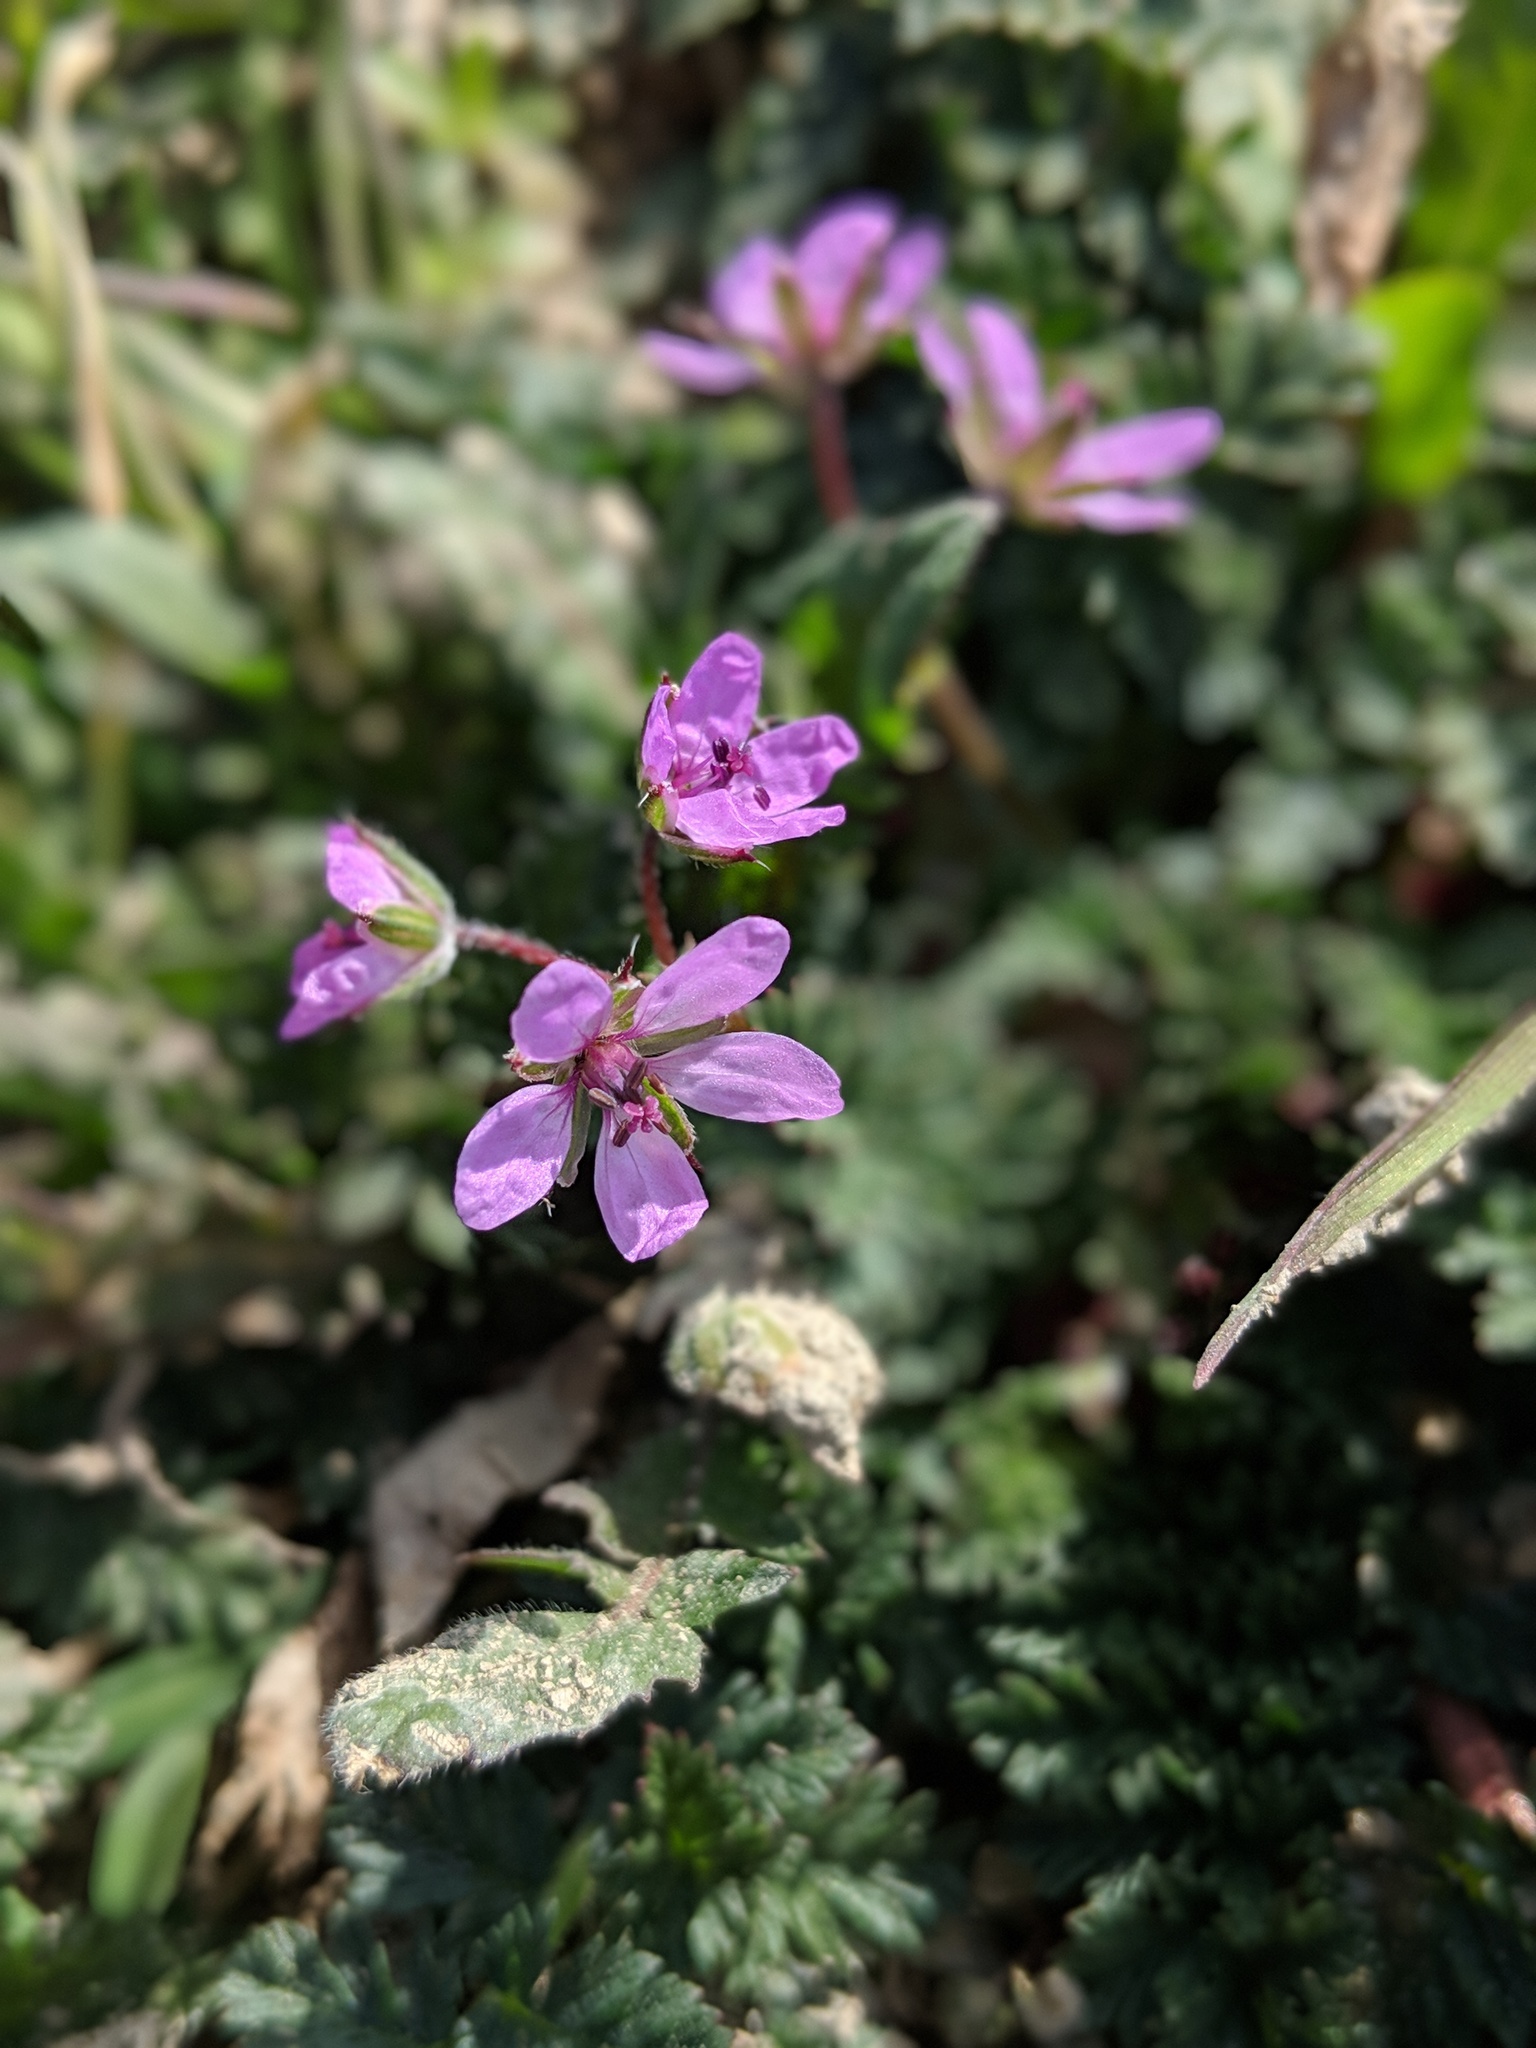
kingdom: Plantae
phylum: Tracheophyta
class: Magnoliopsida
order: Geraniales
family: Geraniaceae
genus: Erodium
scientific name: Erodium cicutarium
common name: Common stork's-bill
